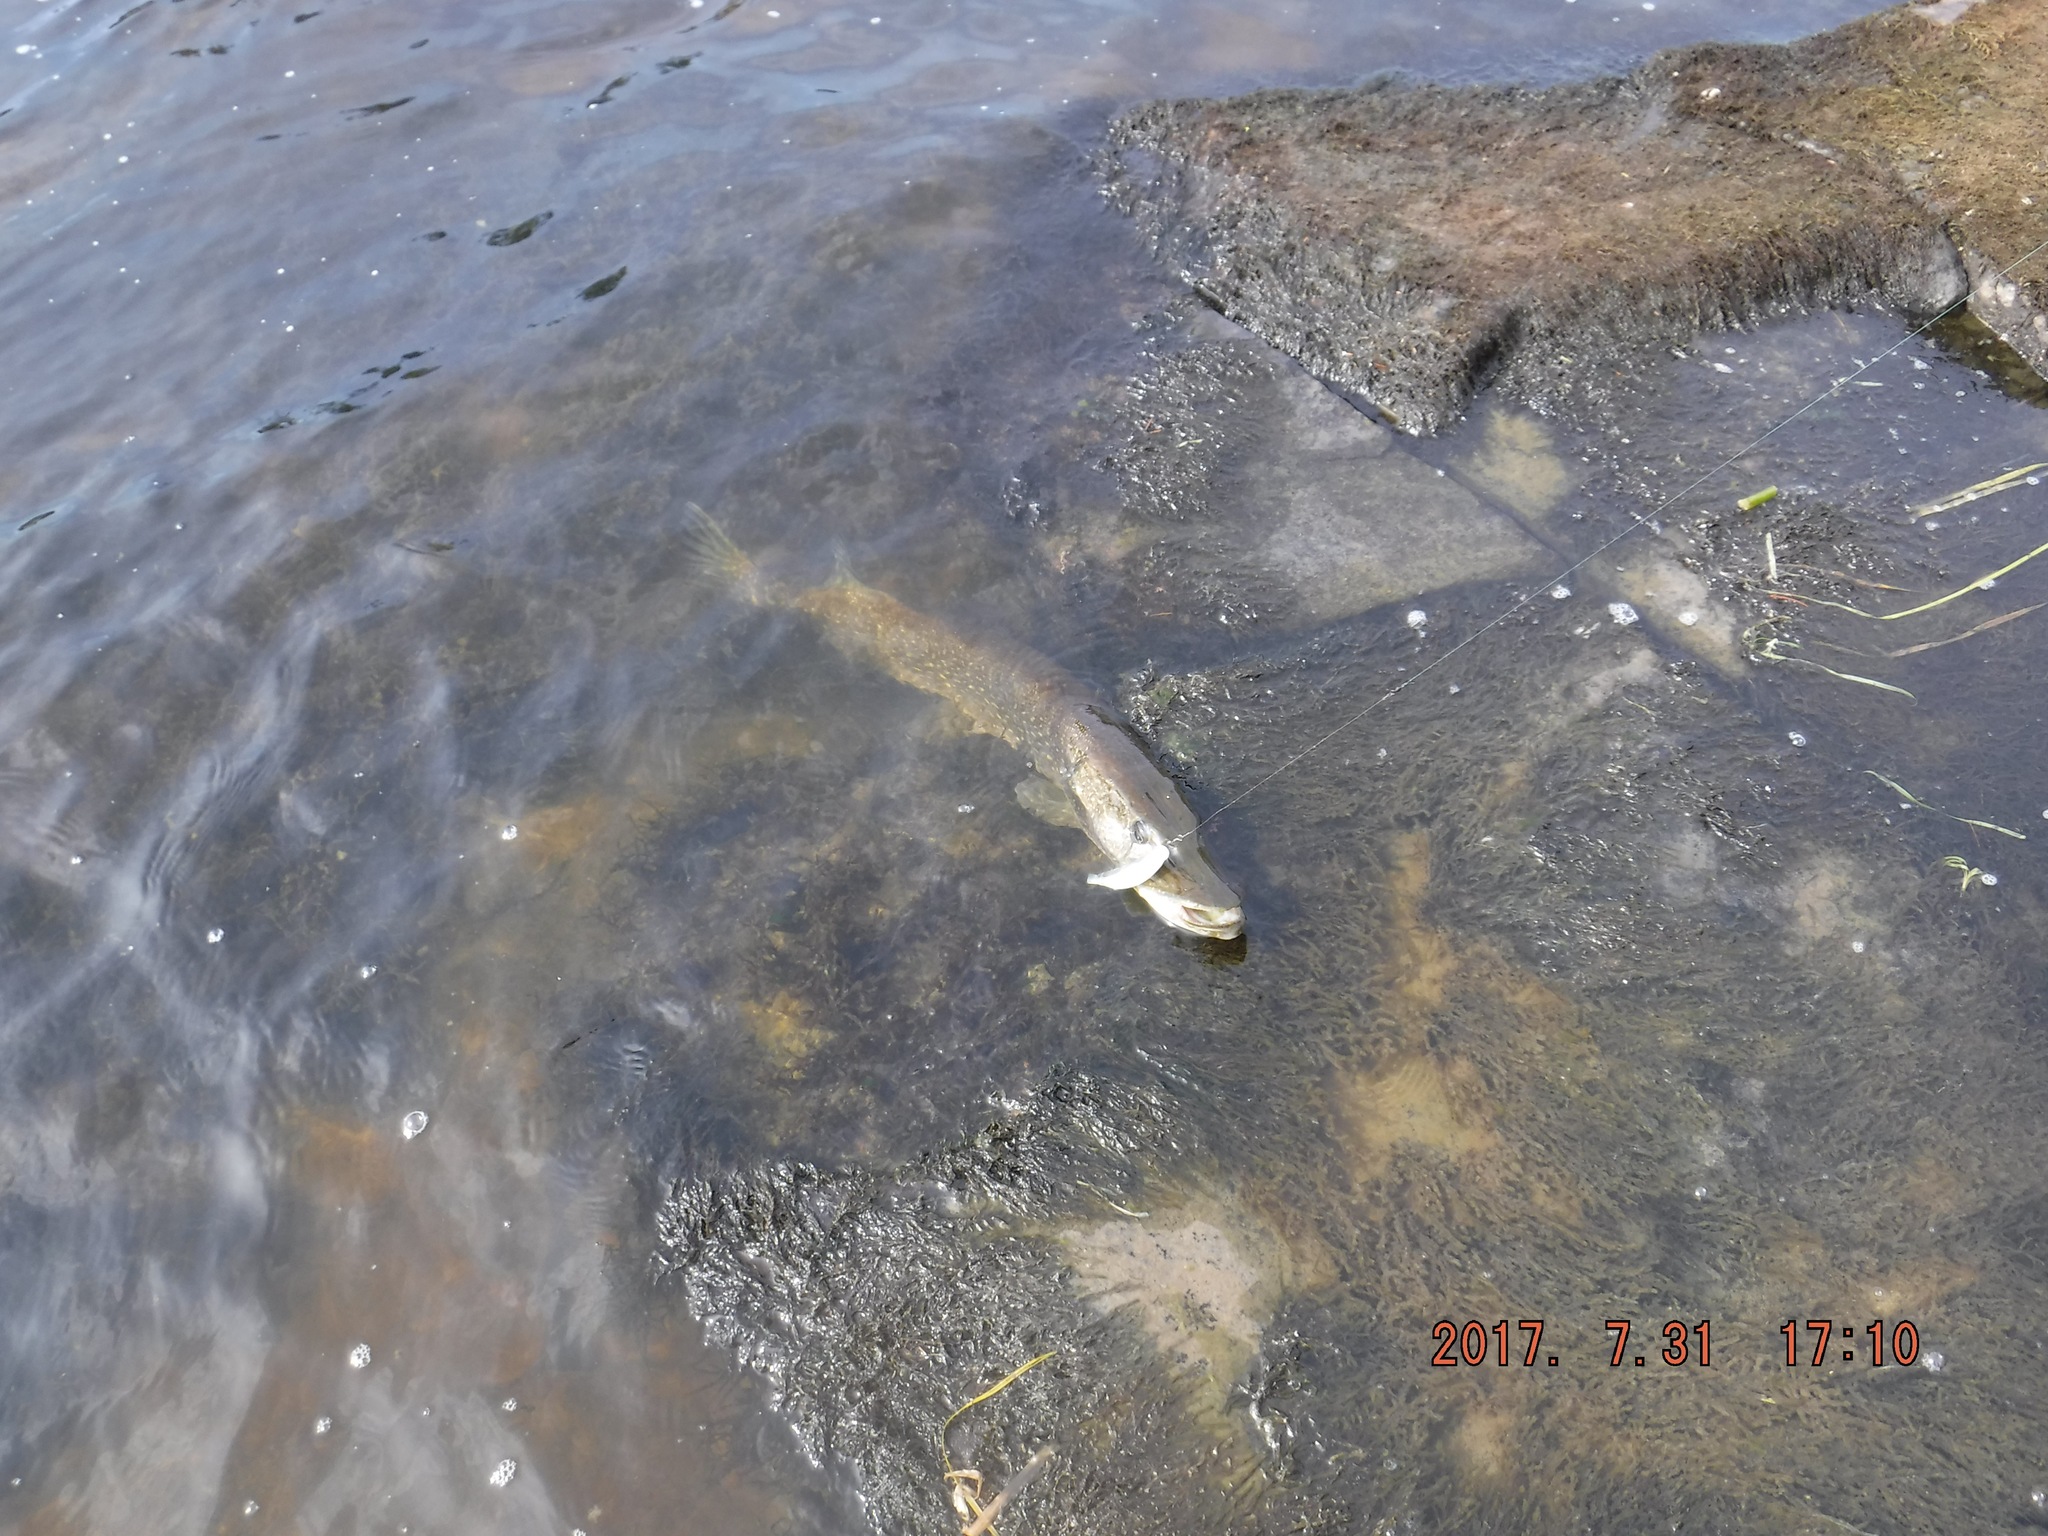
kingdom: Animalia
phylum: Chordata
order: Esociformes
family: Esocidae
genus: Esox
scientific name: Esox lucius
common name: Northern pike
